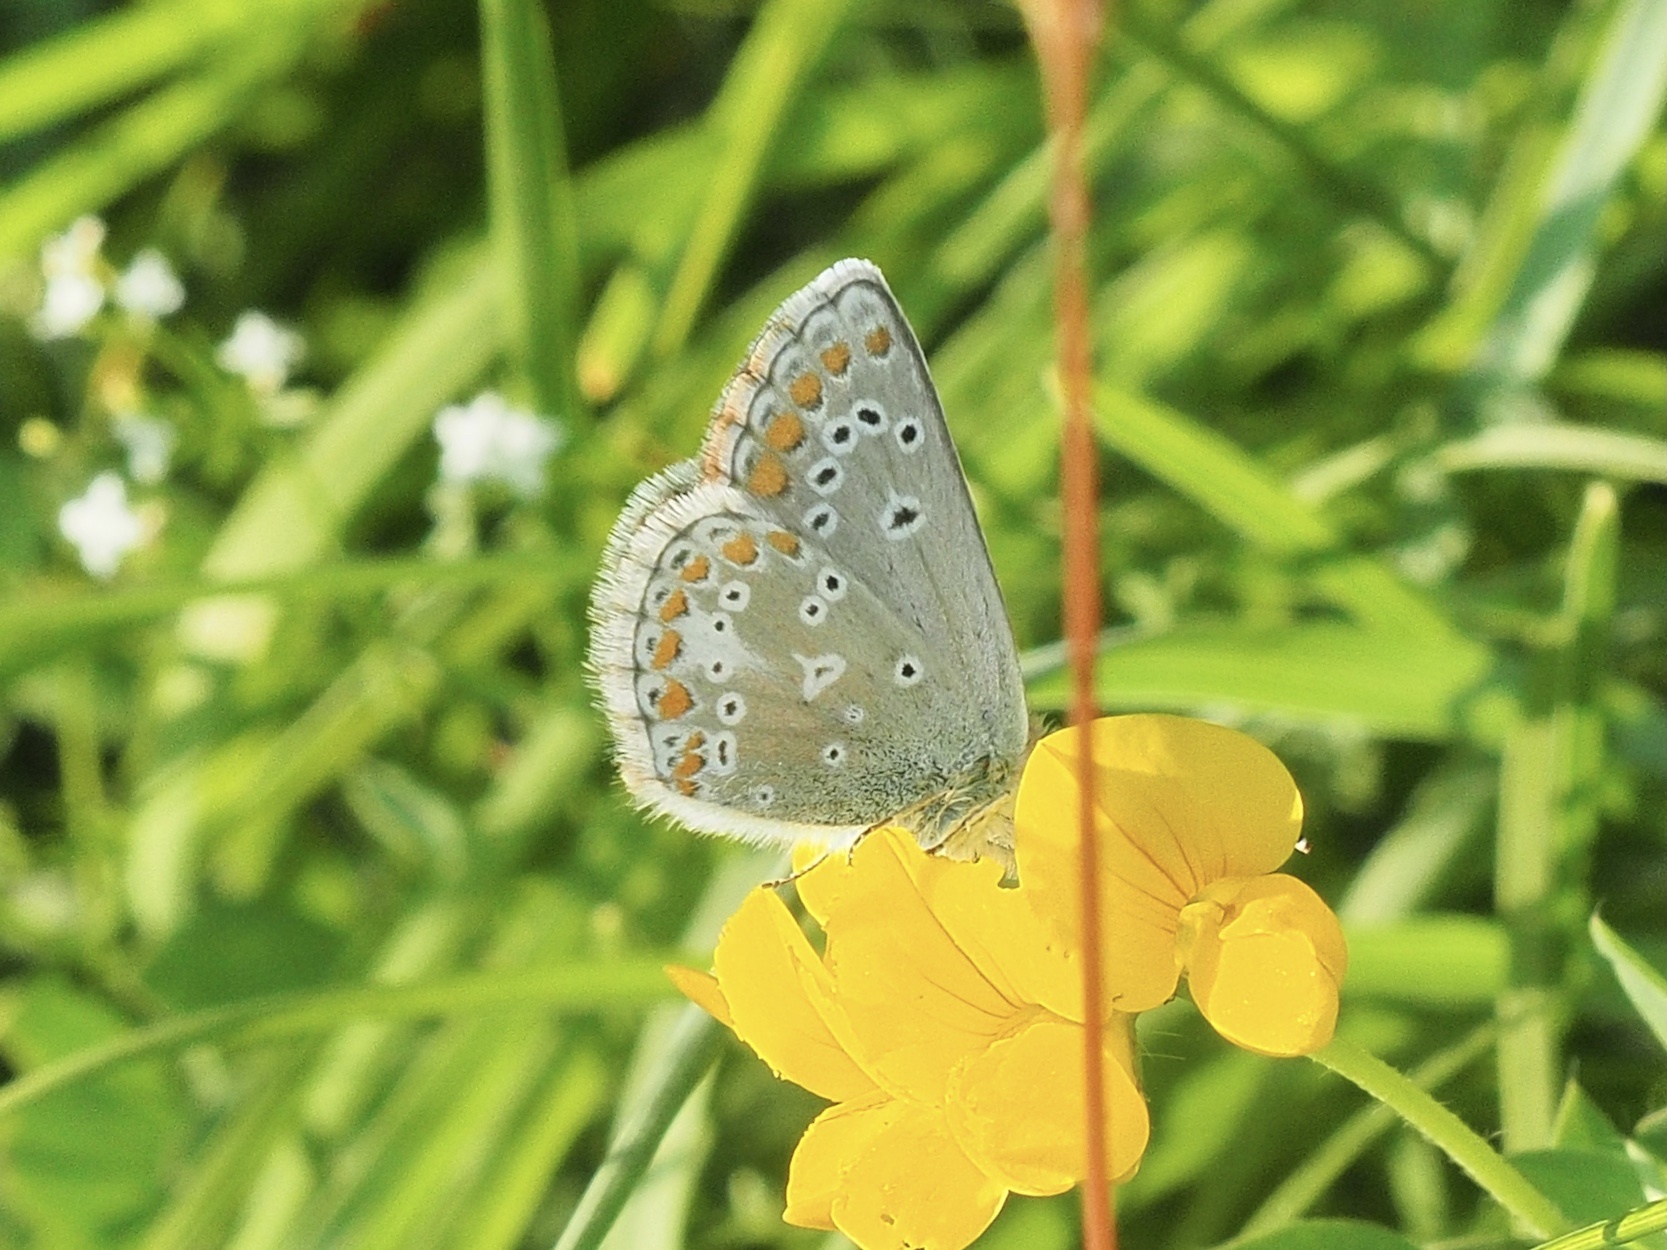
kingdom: Animalia
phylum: Arthropoda
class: Insecta
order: Lepidoptera
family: Lycaenidae
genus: Aricia
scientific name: Aricia artaxerxes
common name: Northern brown argus
